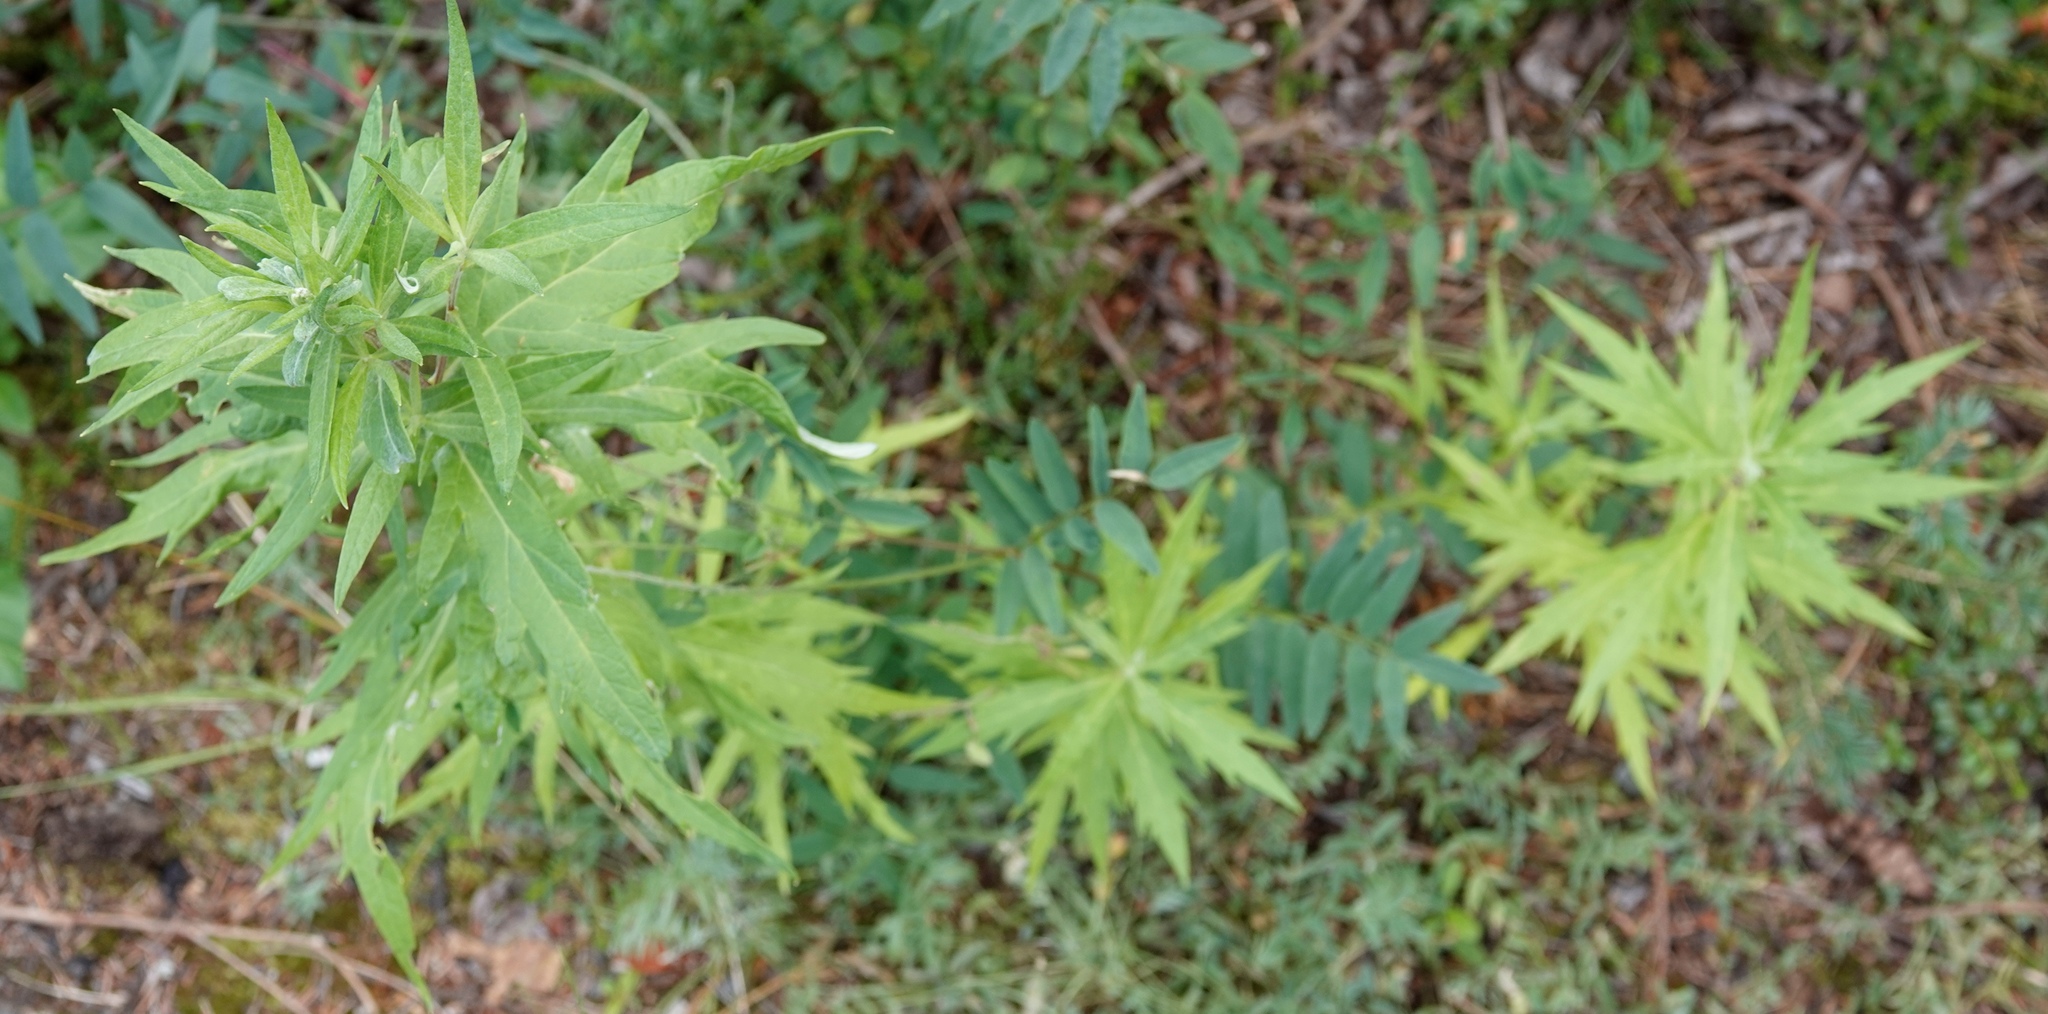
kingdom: Plantae
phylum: Tracheophyta
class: Magnoliopsida
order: Asterales
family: Asteraceae
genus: Artemisia
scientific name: Artemisia tilesii
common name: Aleutian mugwort
